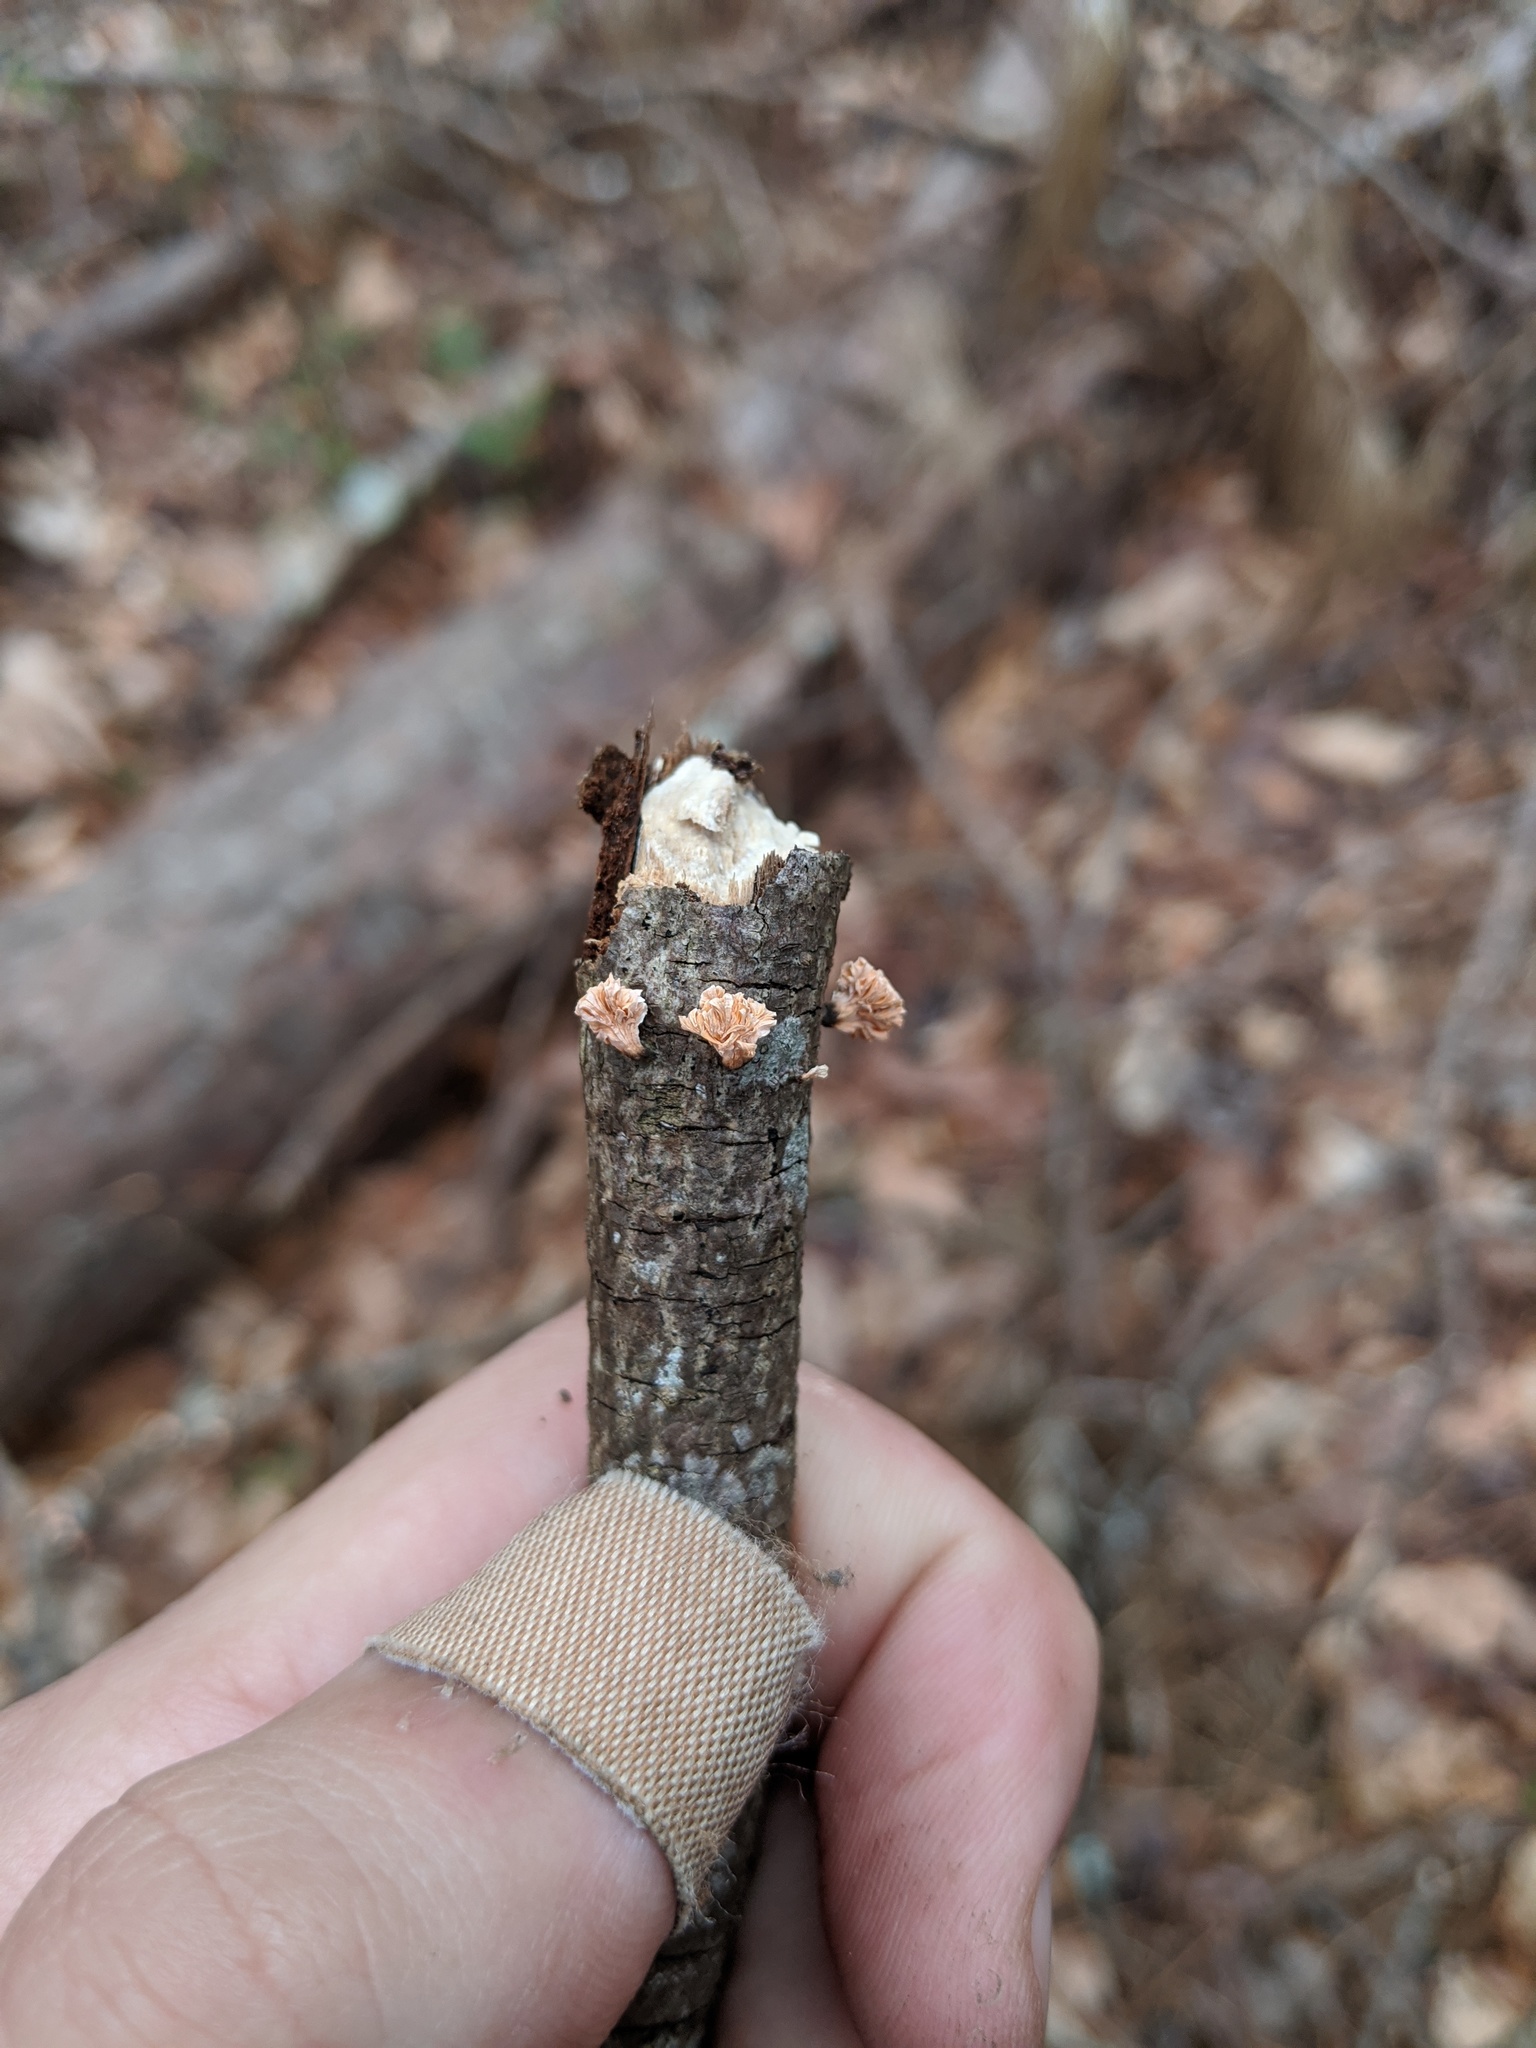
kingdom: Fungi
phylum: Basidiomycota
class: Agaricomycetes
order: Agaricales
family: Schizophyllaceae
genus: Schizophyllum
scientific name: Schizophyllum commune
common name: Common porecrust
